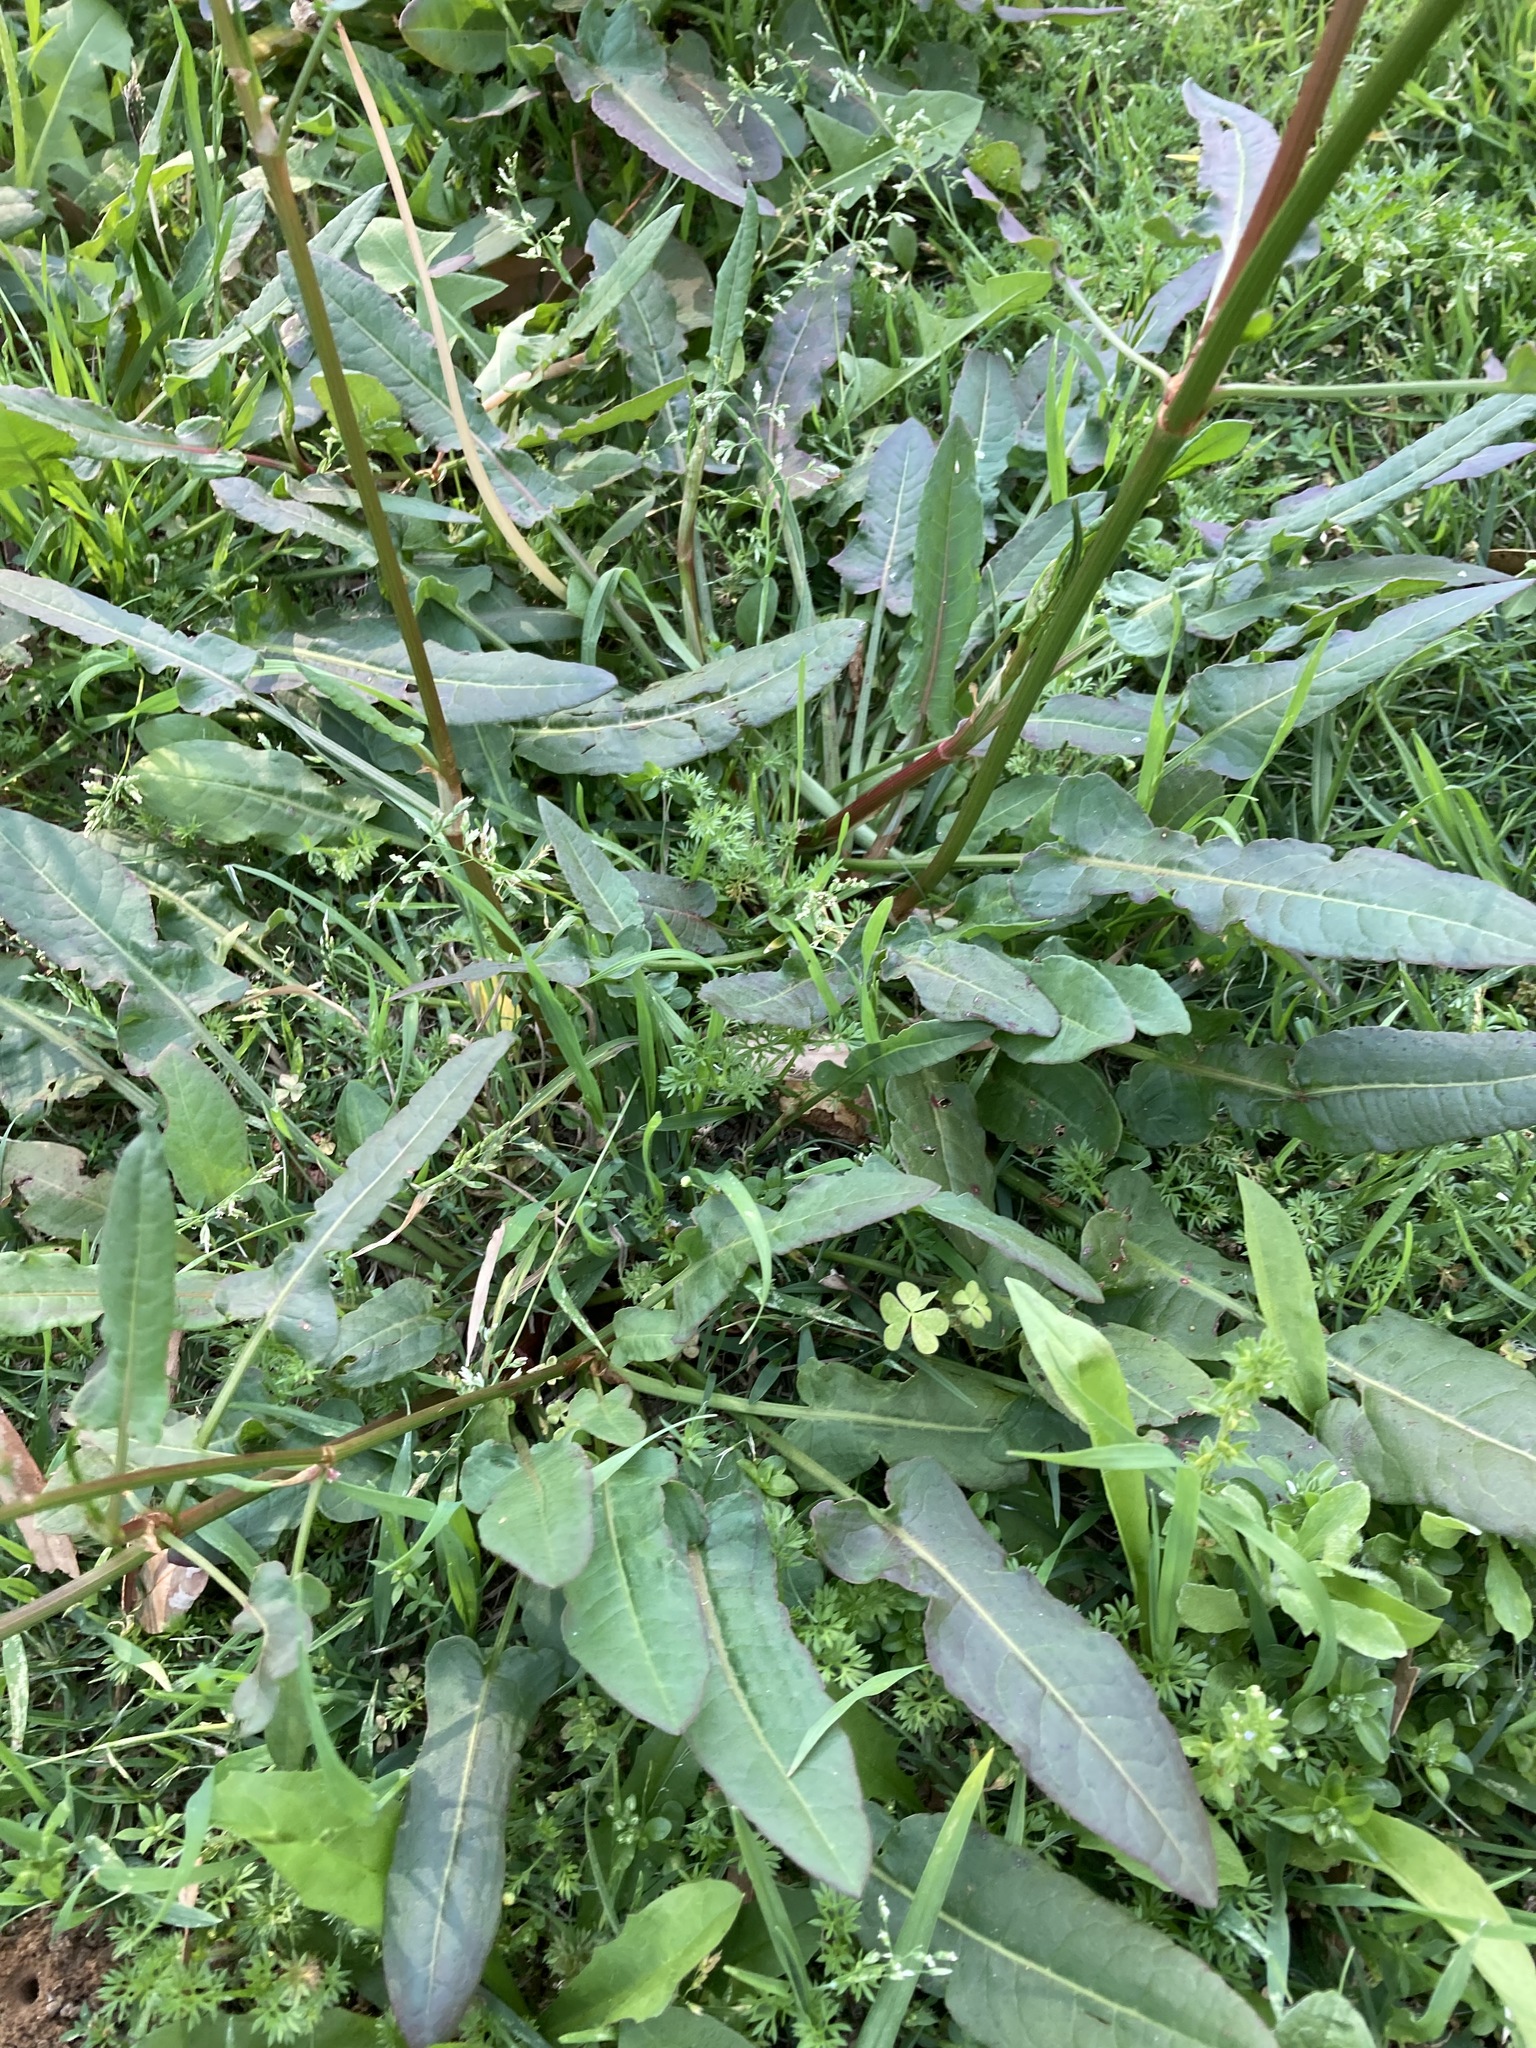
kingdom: Plantae
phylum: Tracheophyta
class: Magnoliopsida
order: Caryophyllales
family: Polygonaceae
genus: Rumex
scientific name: Rumex brownii
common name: Hooked dock
